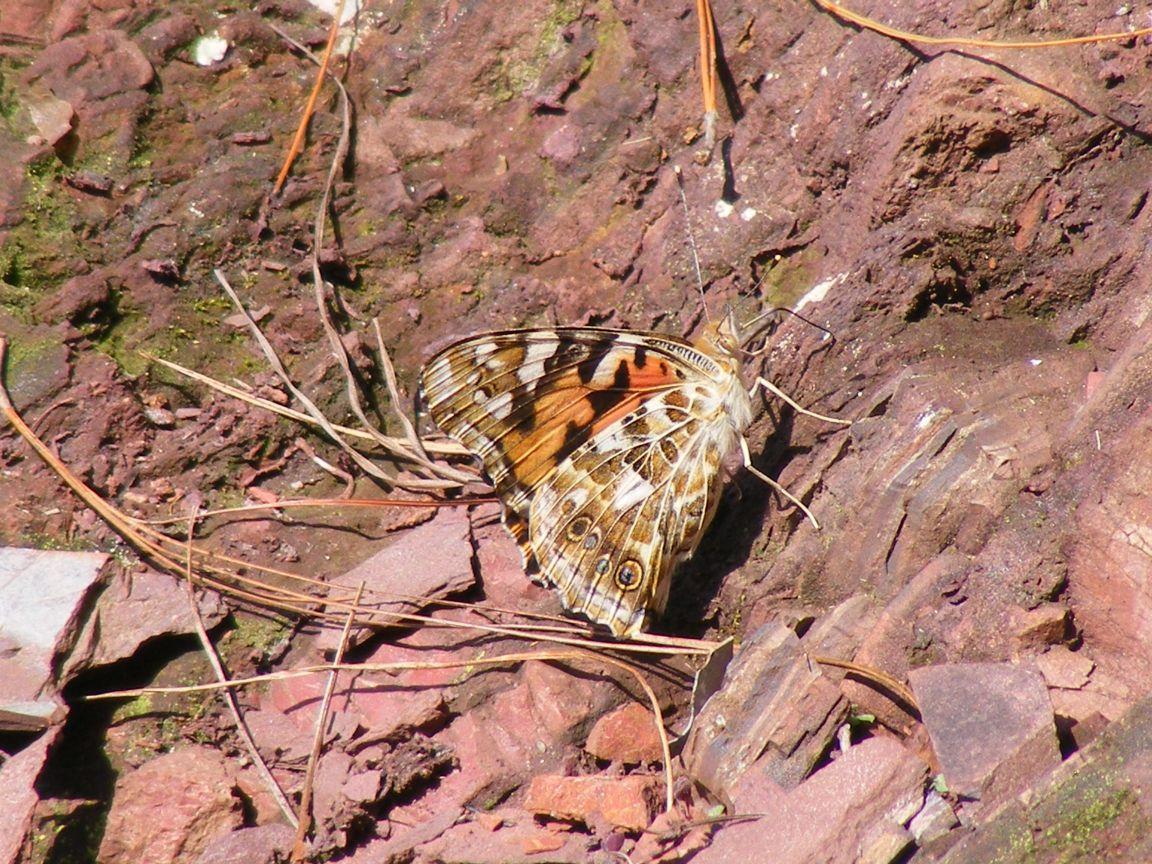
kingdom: Animalia
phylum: Arthropoda
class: Insecta
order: Lepidoptera
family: Nymphalidae
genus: Vanessa
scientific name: Vanessa cardui
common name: Painted lady
